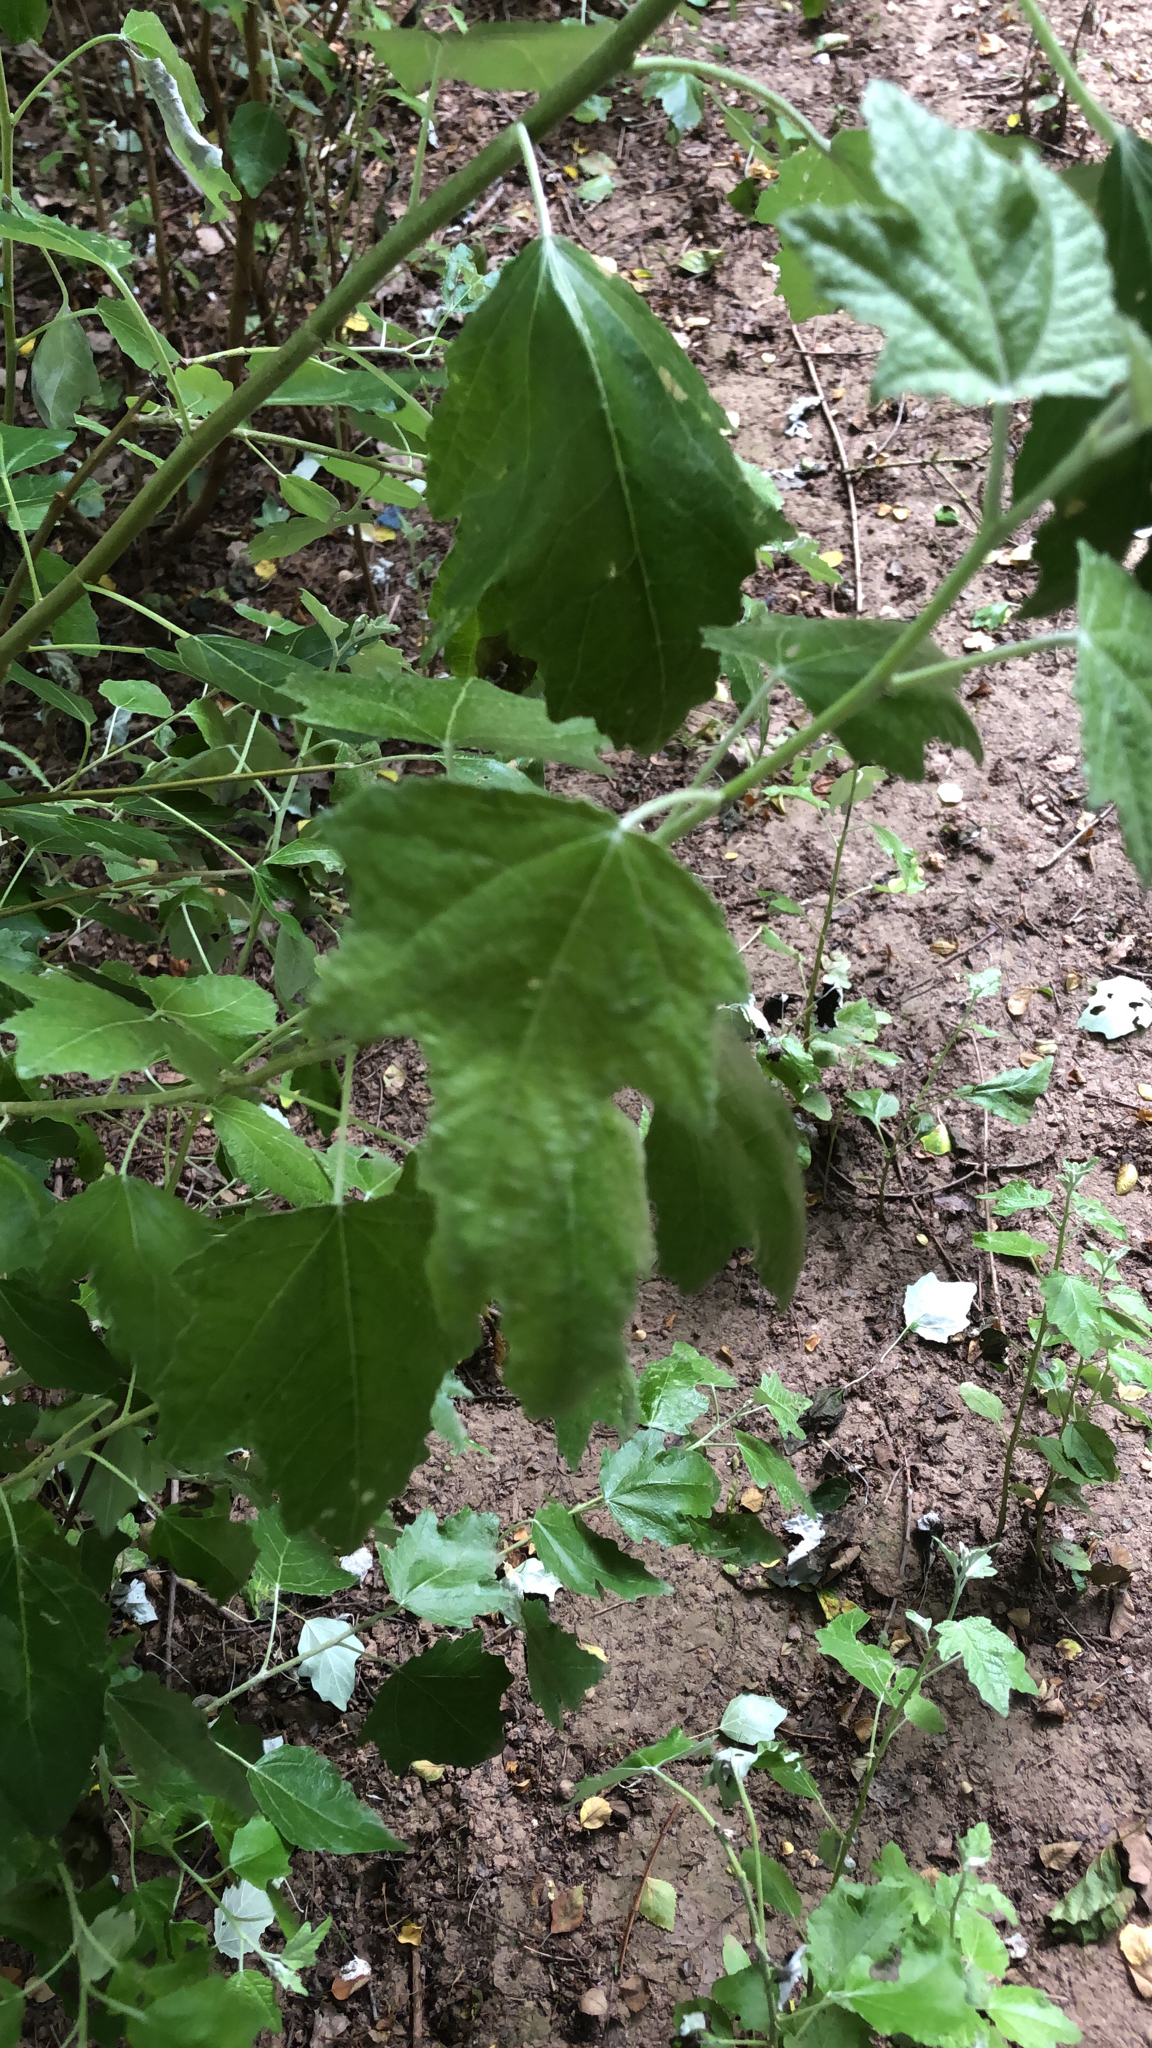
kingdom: Plantae
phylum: Tracheophyta
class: Magnoliopsida
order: Malpighiales
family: Salicaceae
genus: Populus
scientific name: Populus alba
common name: White poplar
